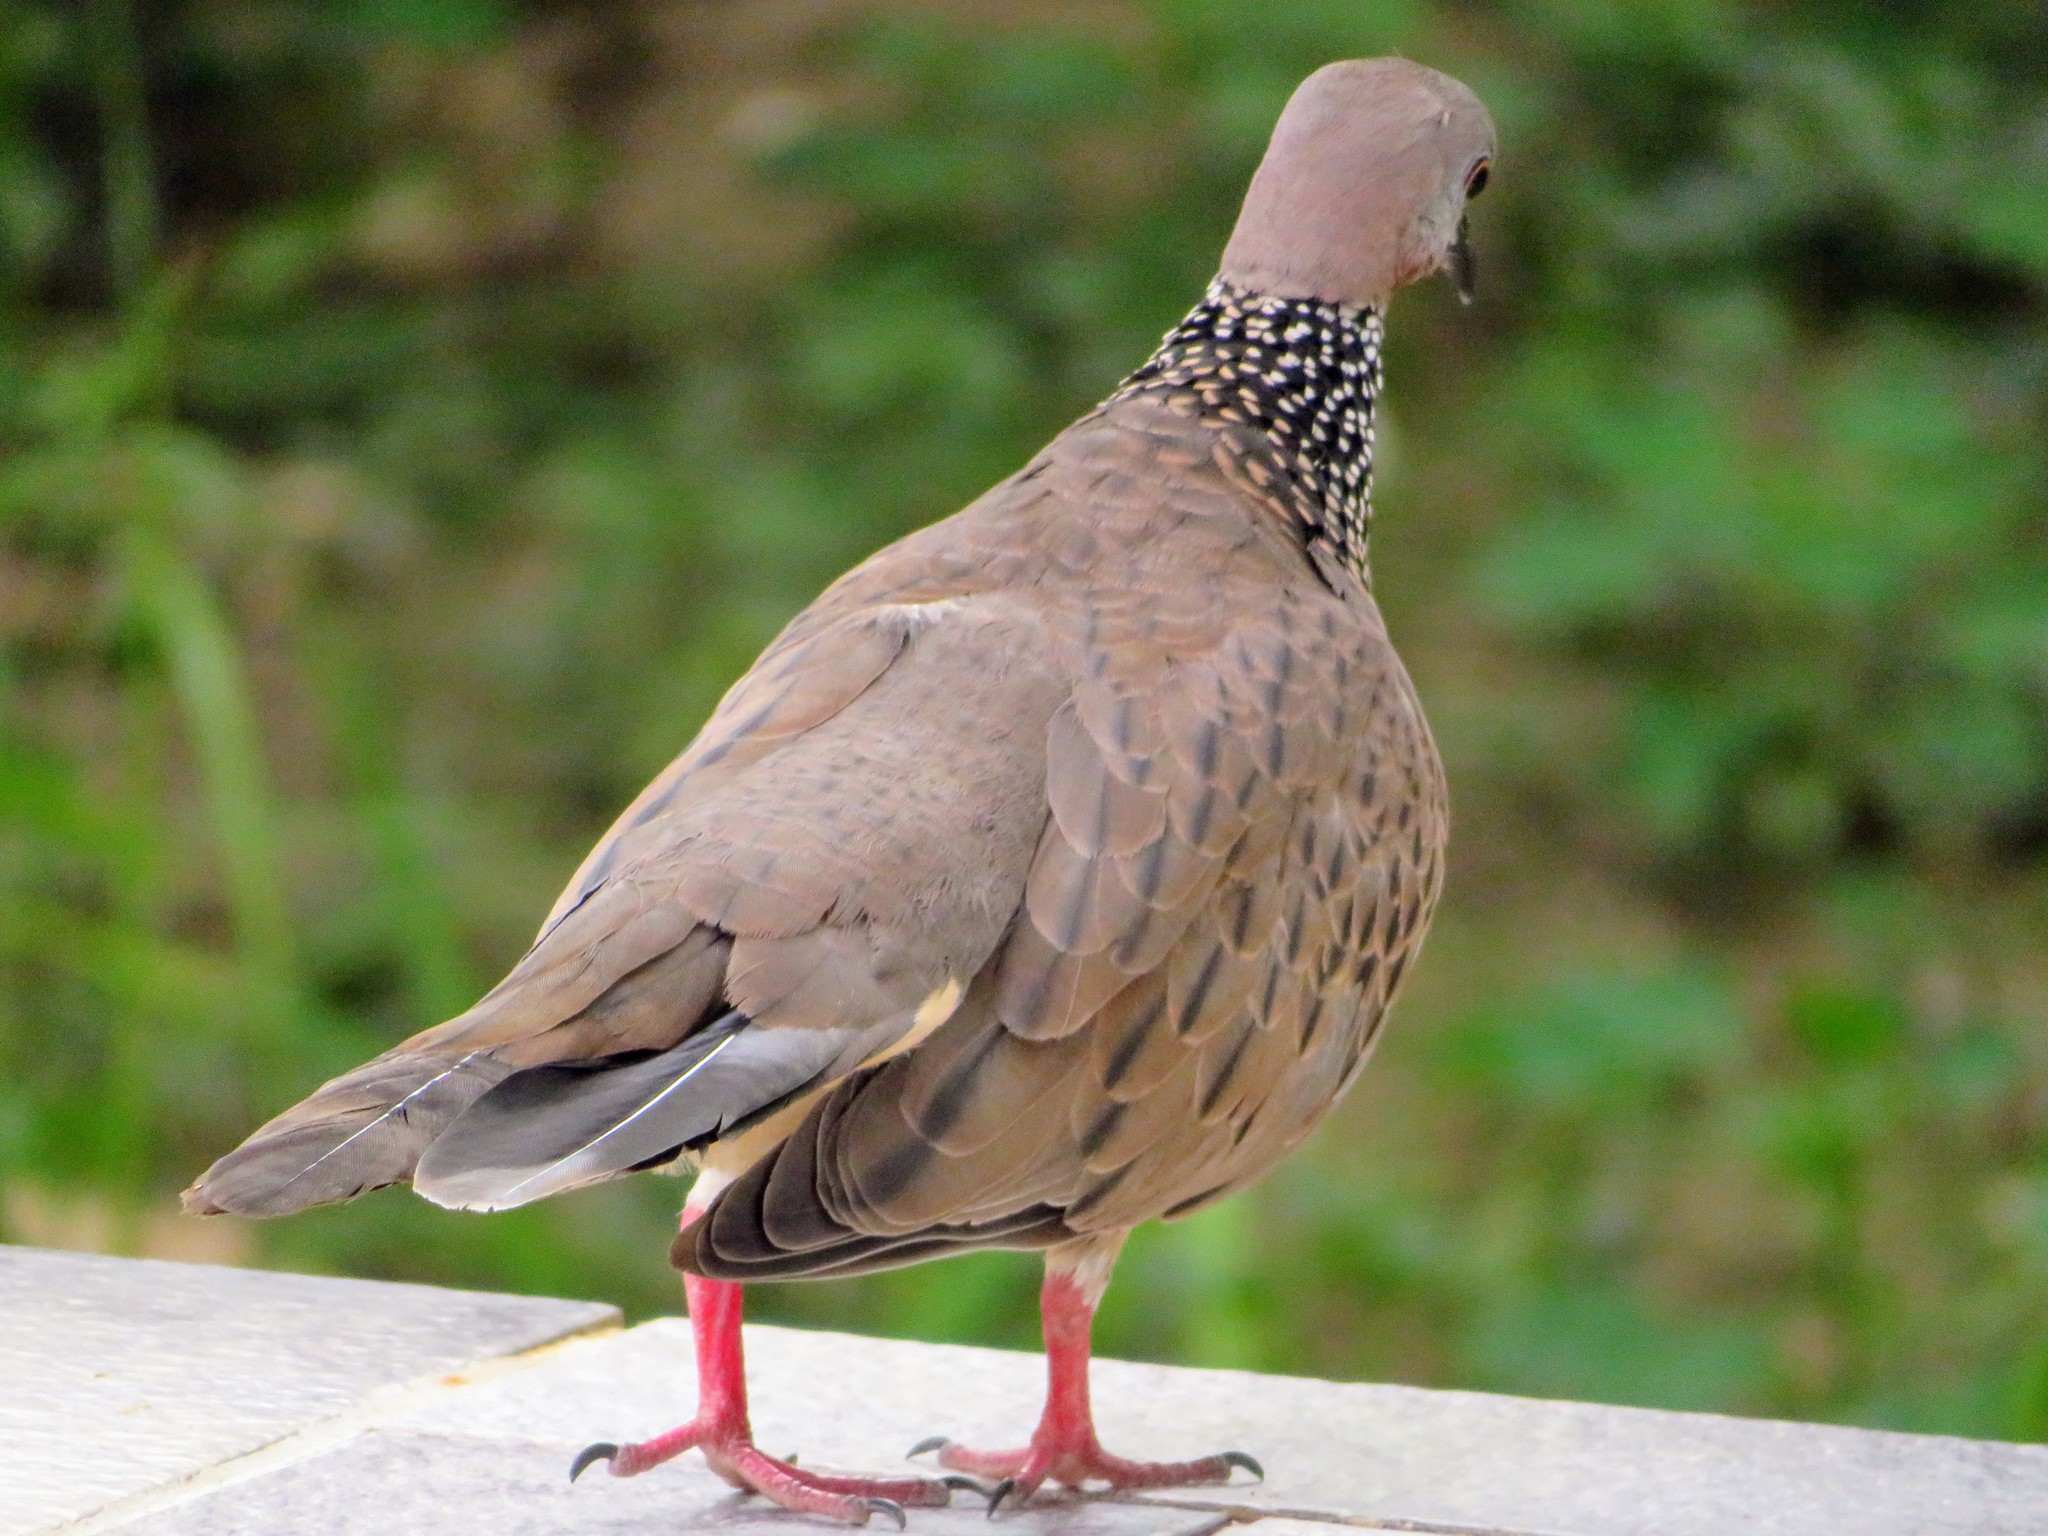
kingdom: Animalia
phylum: Chordata
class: Aves
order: Columbiformes
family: Columbidae
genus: Spilopelia
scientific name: Spilopelia chinensis
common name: Spotted dove
